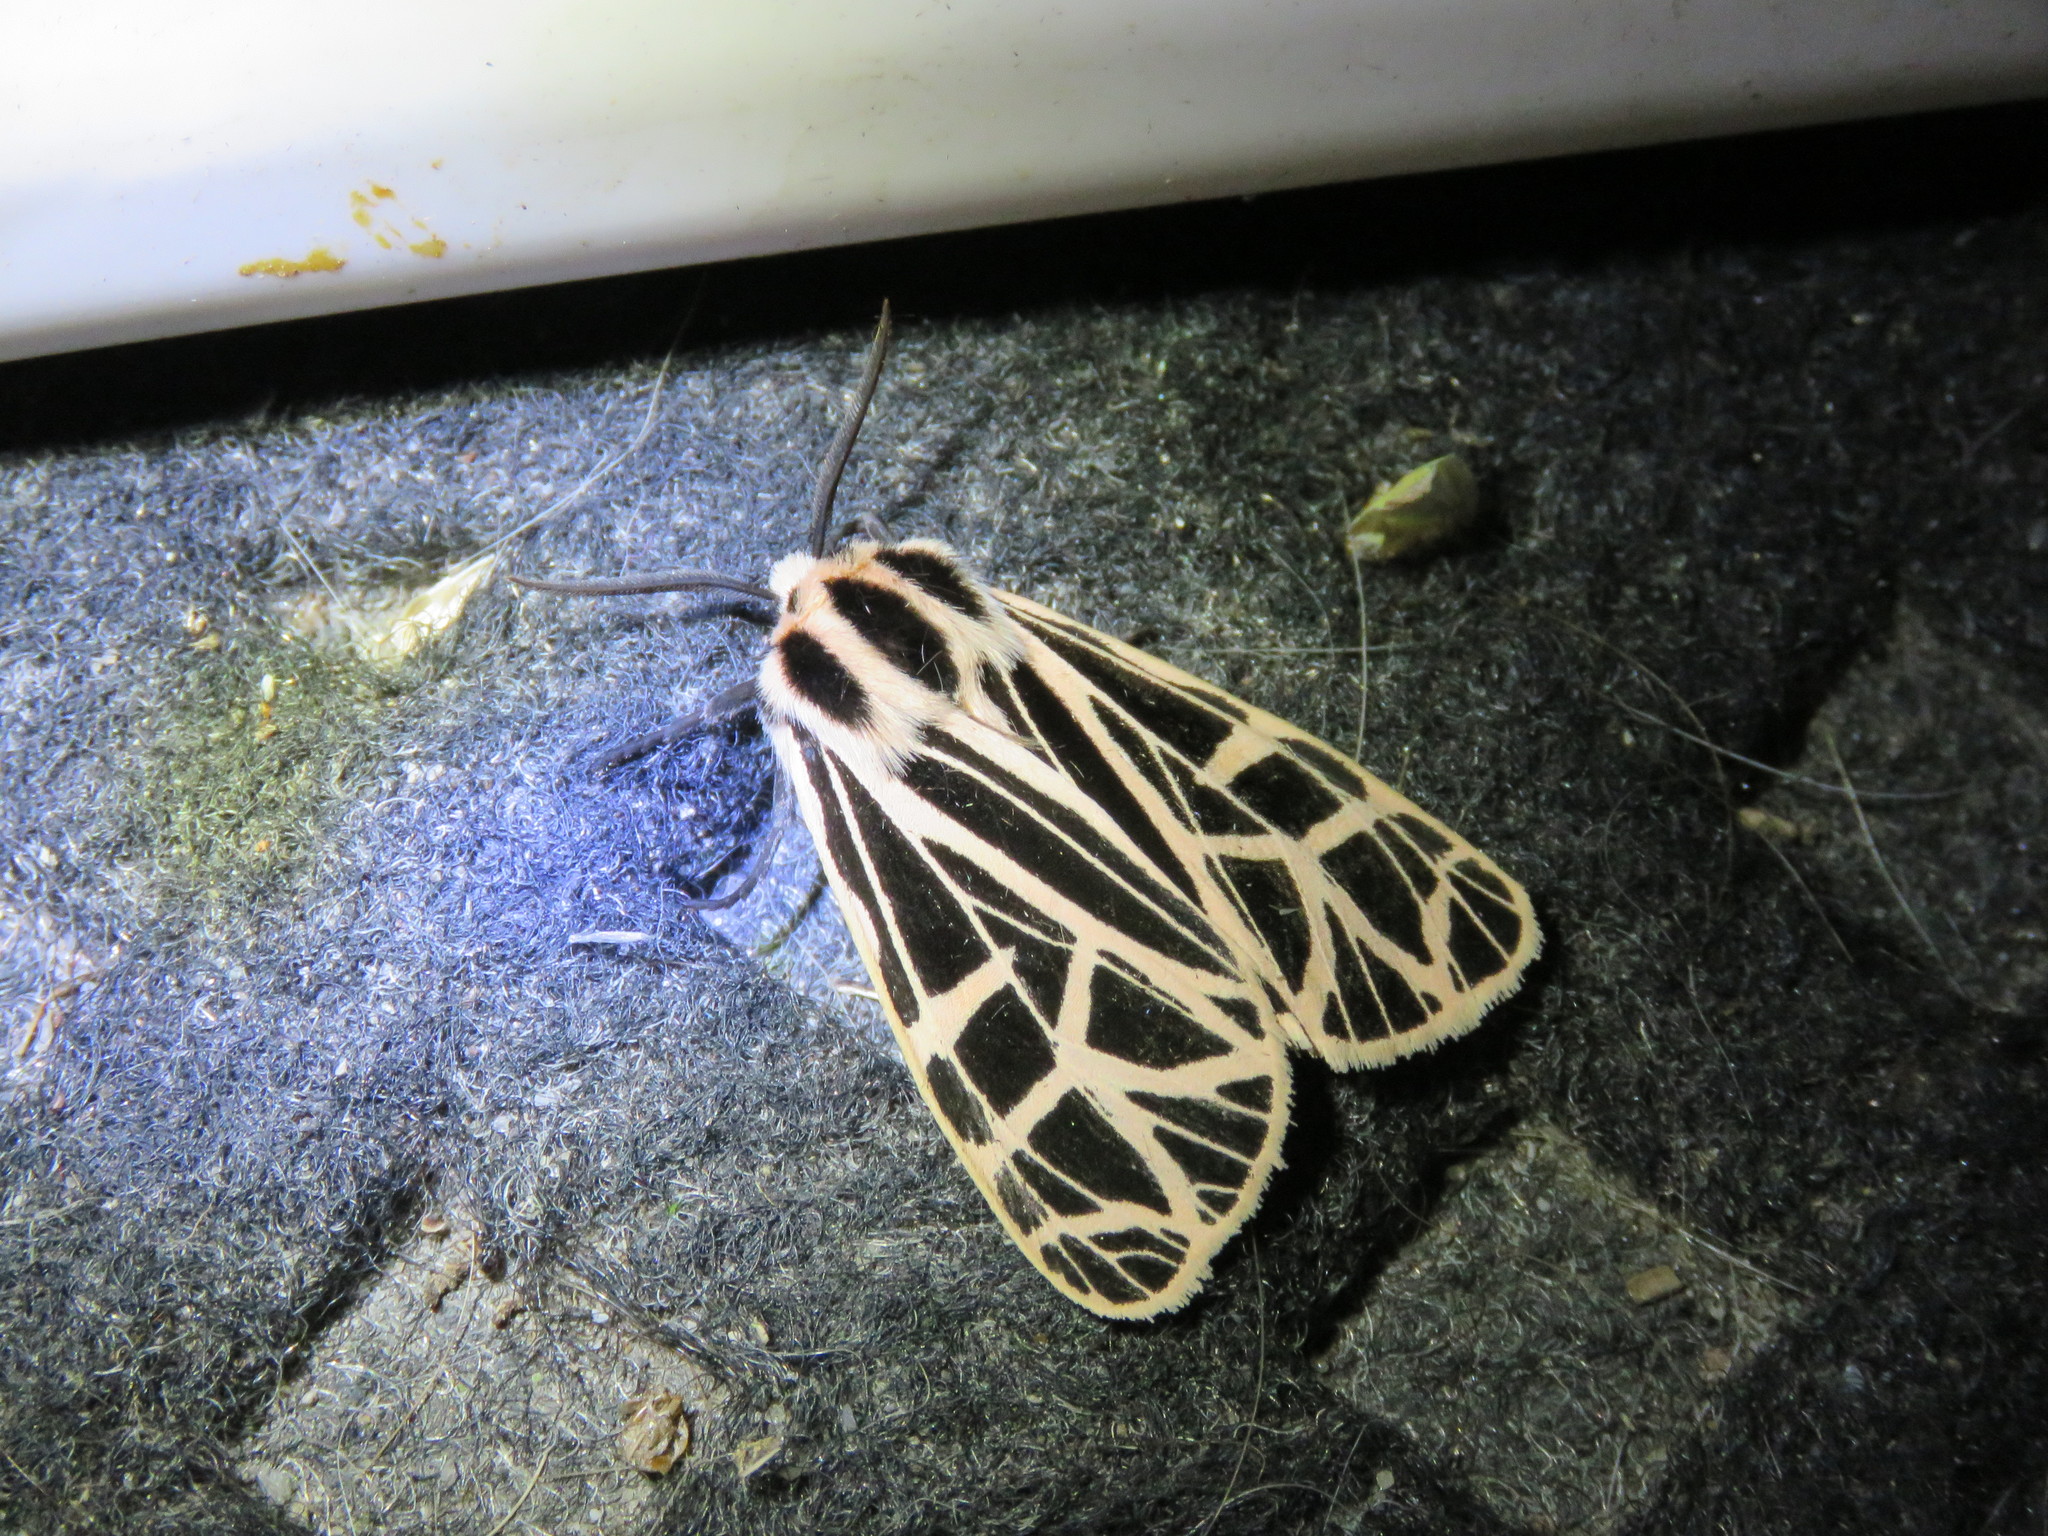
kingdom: Animalia
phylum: Arthropoda
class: Insecta
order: Lepidoptera
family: Erebidae
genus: Grammia
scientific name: Grammia parthenice
